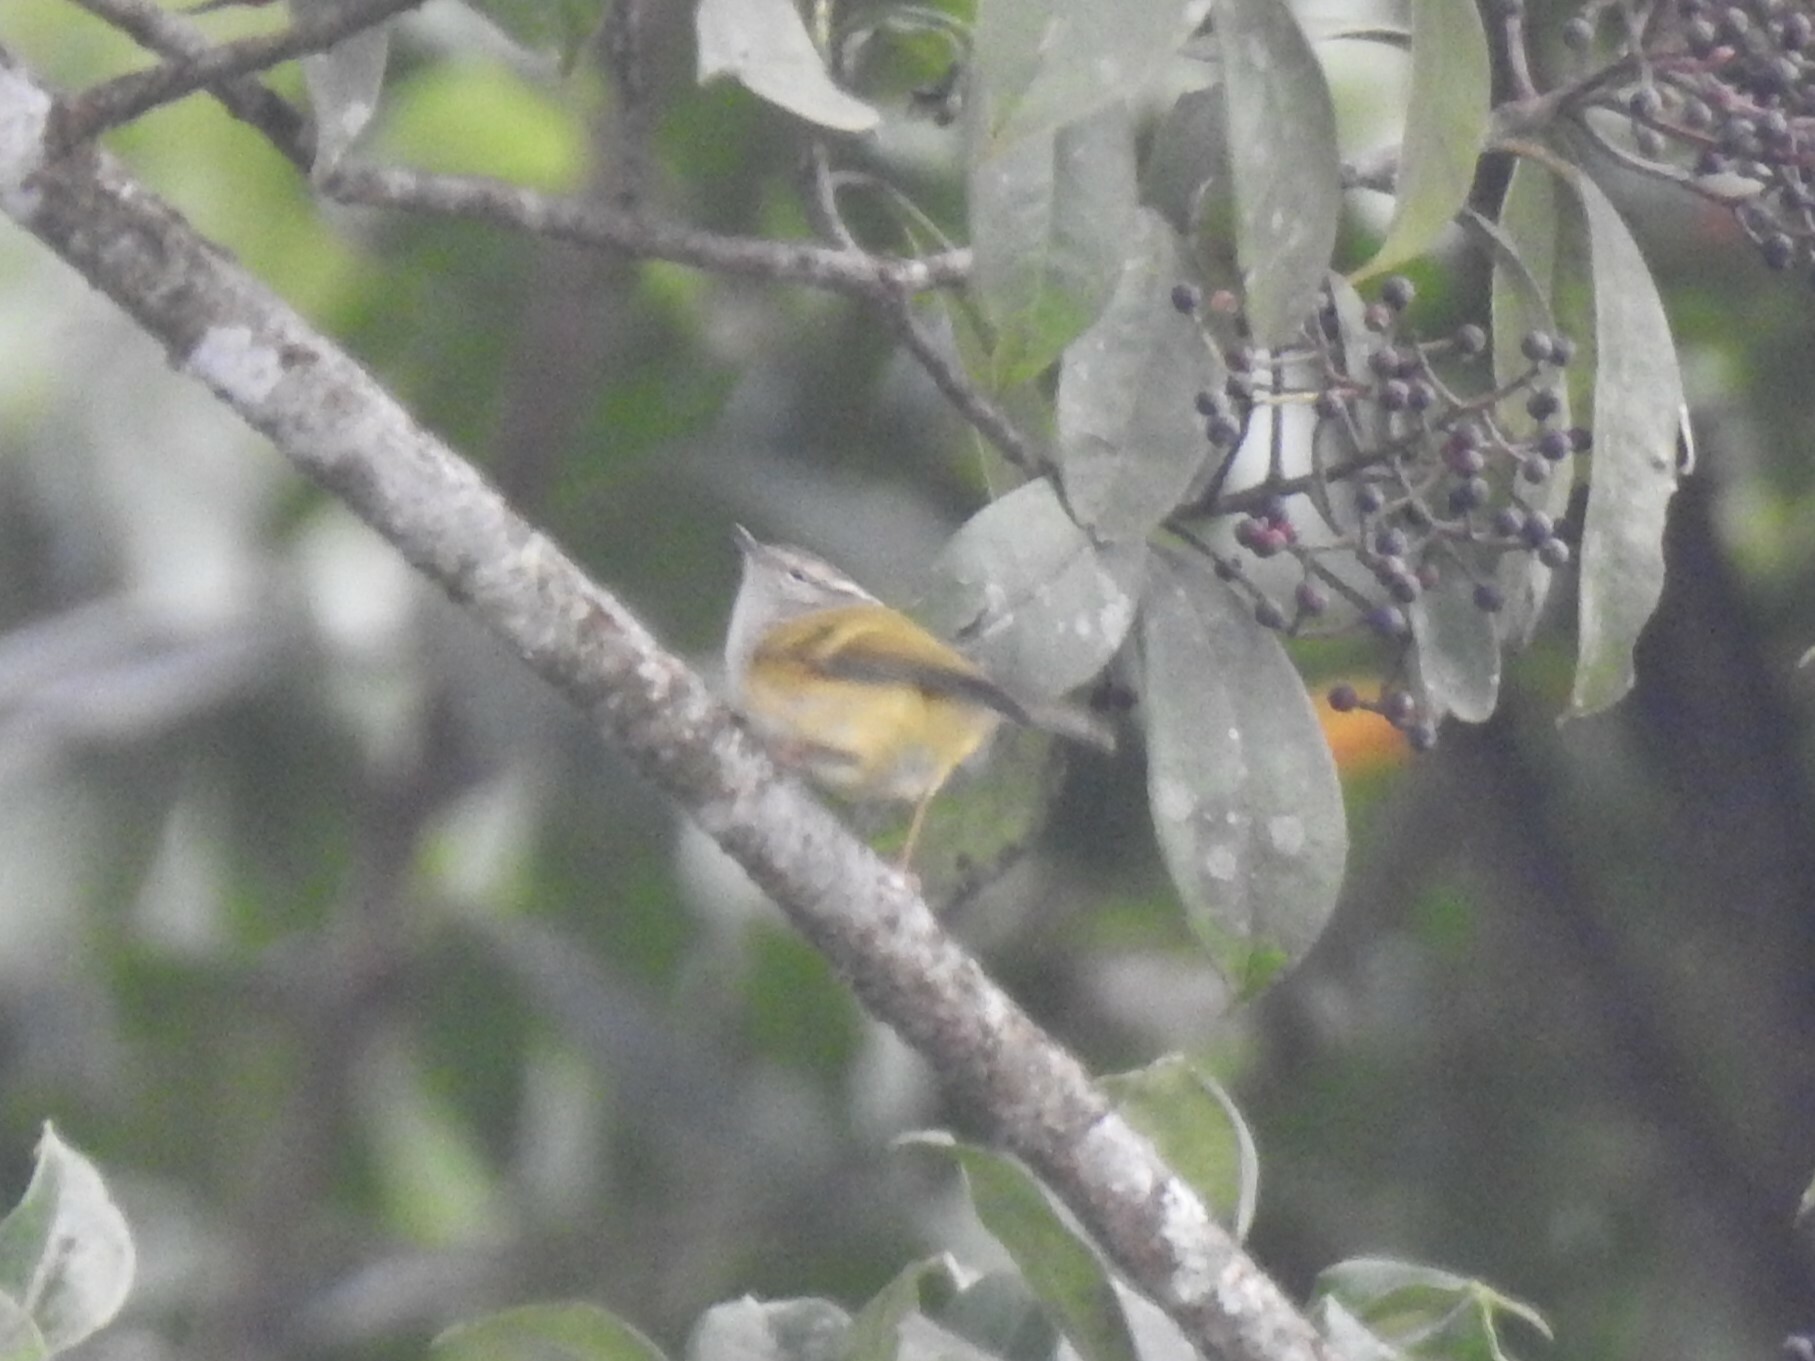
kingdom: Animalia
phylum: Chordata
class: Aves
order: Passeriformes
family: Phylloscopidae
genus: Phylloscopus
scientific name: Phylloscopus maculipennis
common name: Ashy-throated warbler
